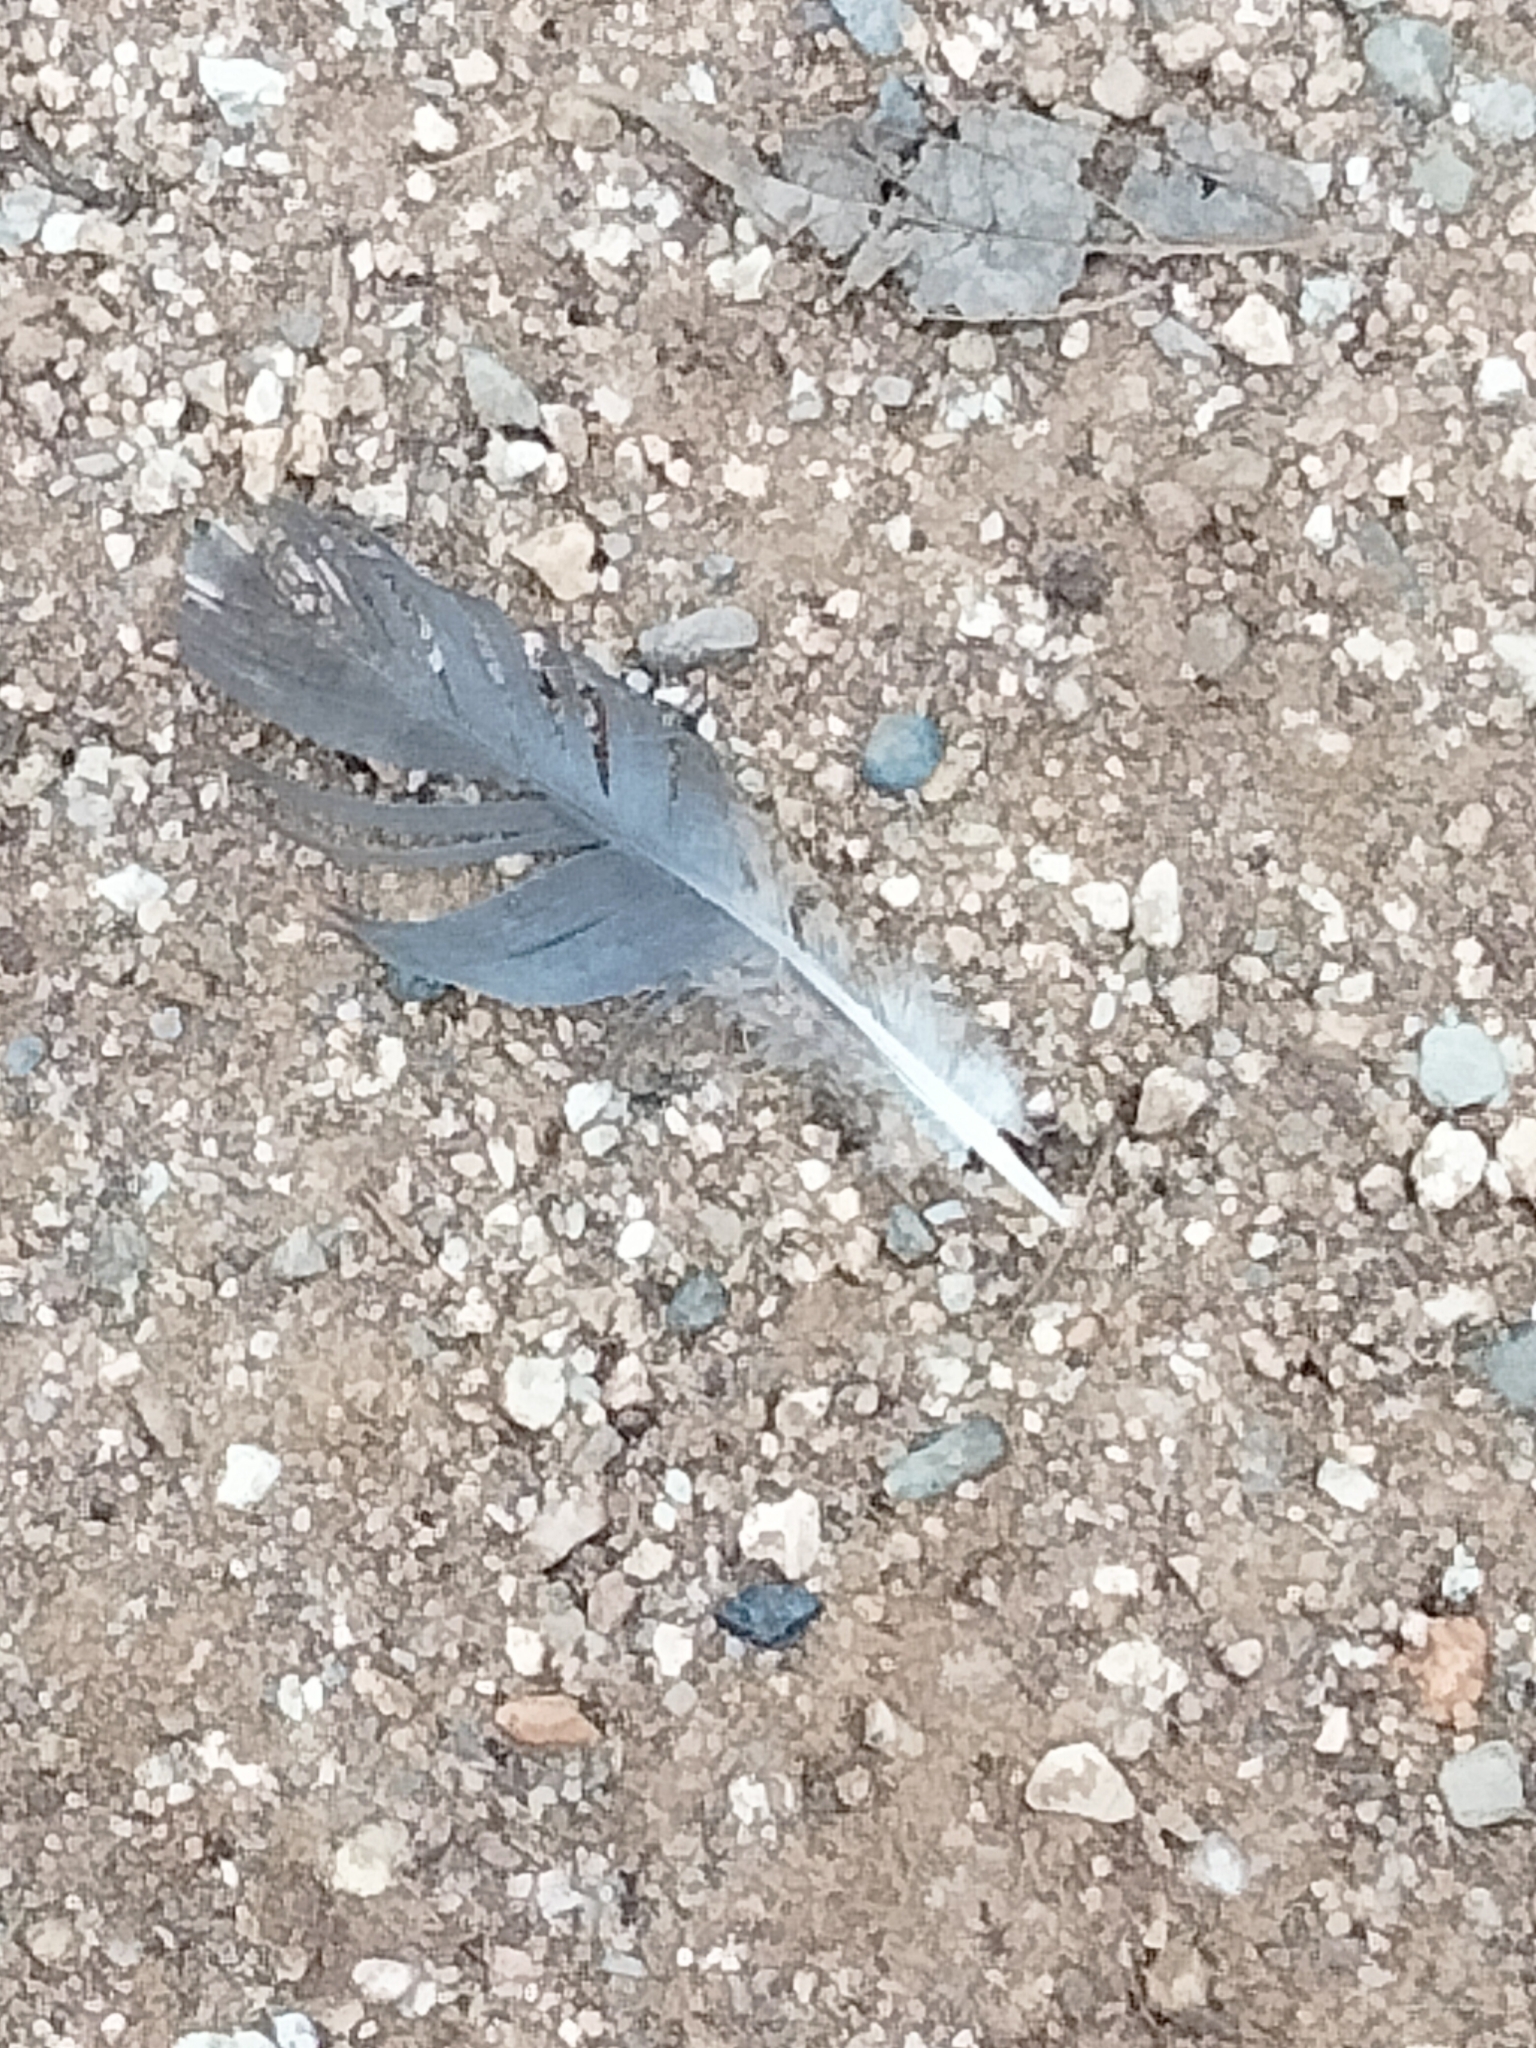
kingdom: Animalia
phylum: Chordata
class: Aves
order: Columbiformes
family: Columbidae
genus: Columba
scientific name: Columba livia
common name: Rock pigeon
